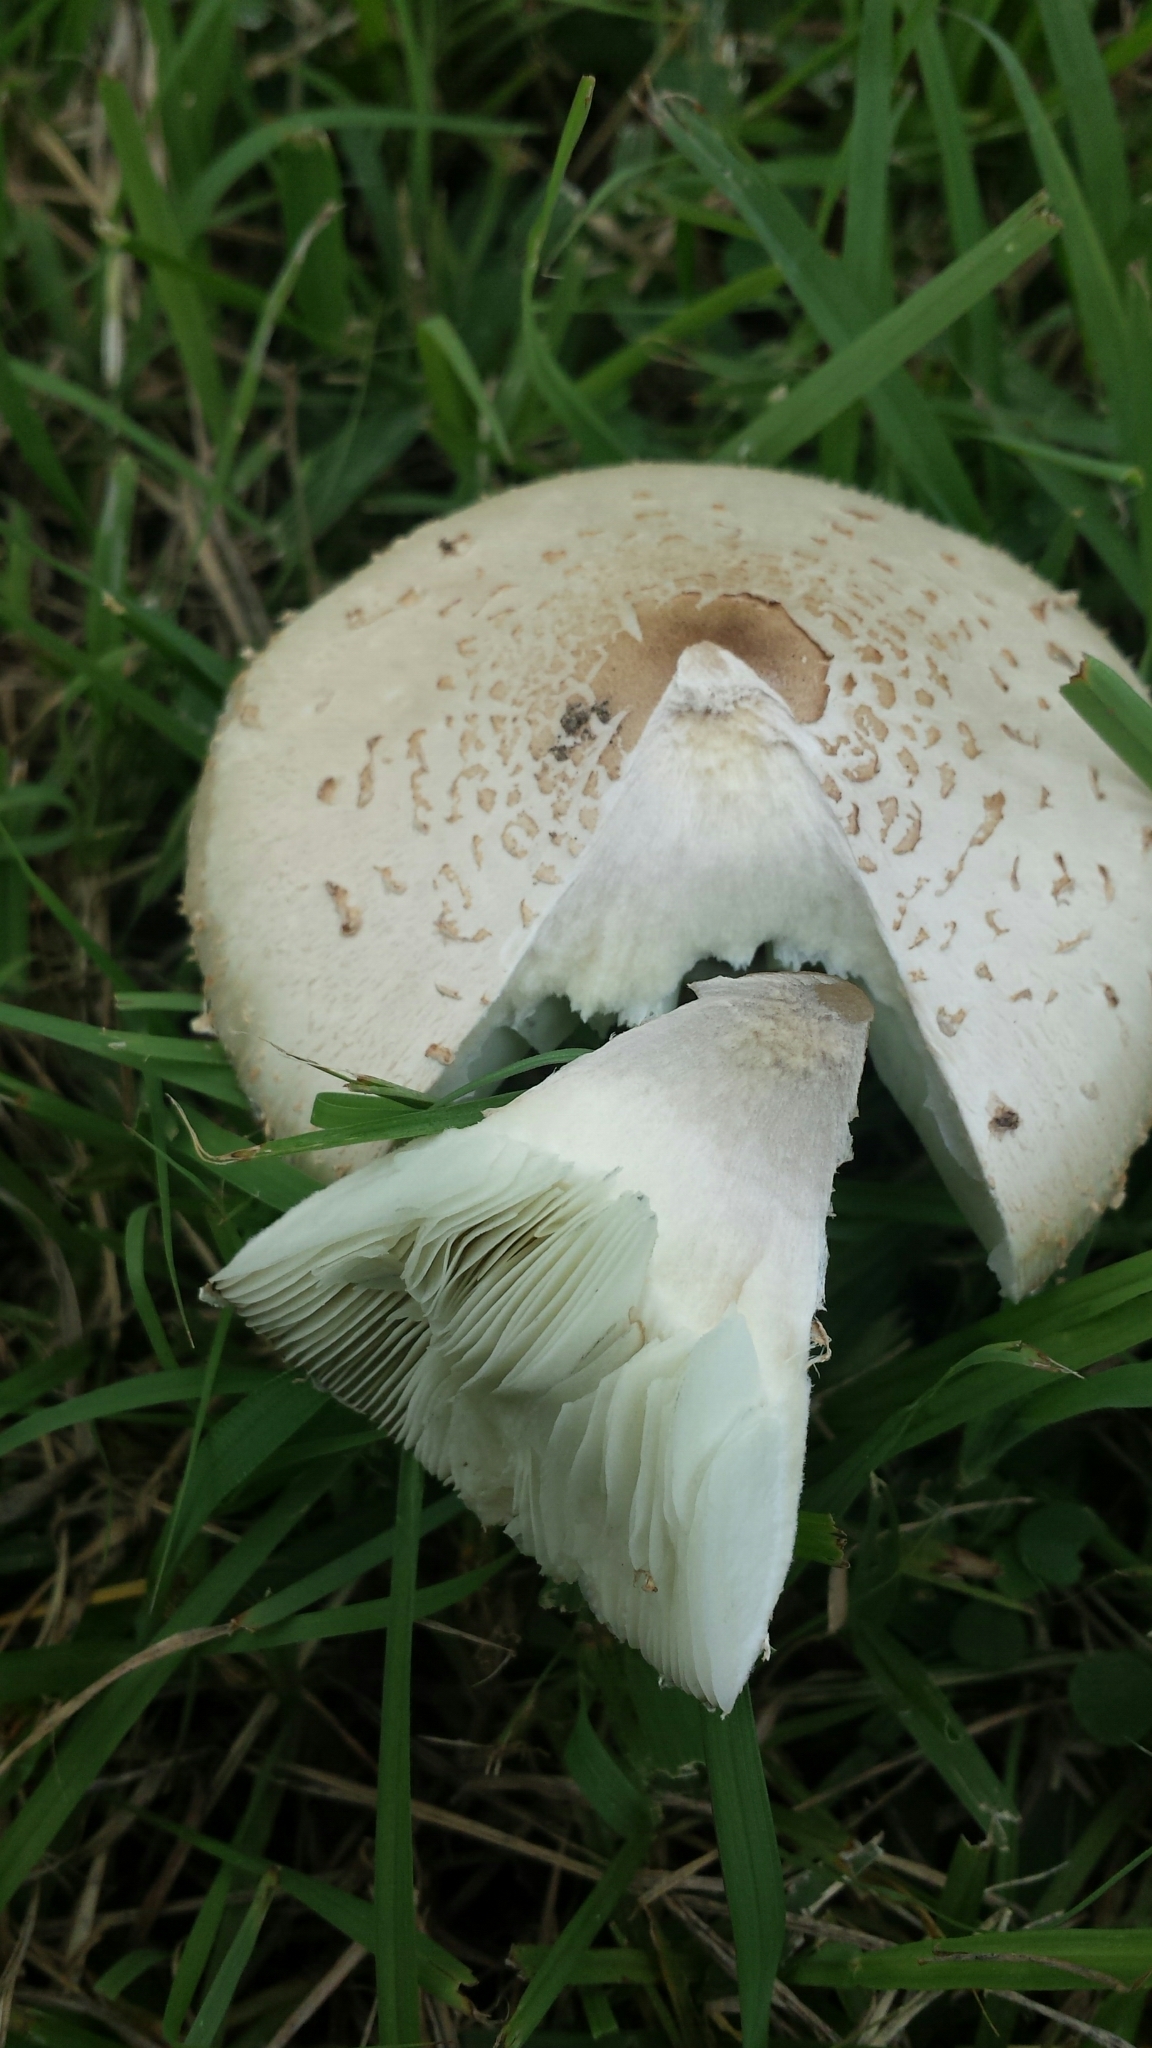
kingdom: Fungi
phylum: Basidiomycota
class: Agaricomycetes
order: Agaricales
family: Agaricaceae
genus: Chlorophyllum
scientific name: Chlorophyllum molybdites
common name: False parasol
